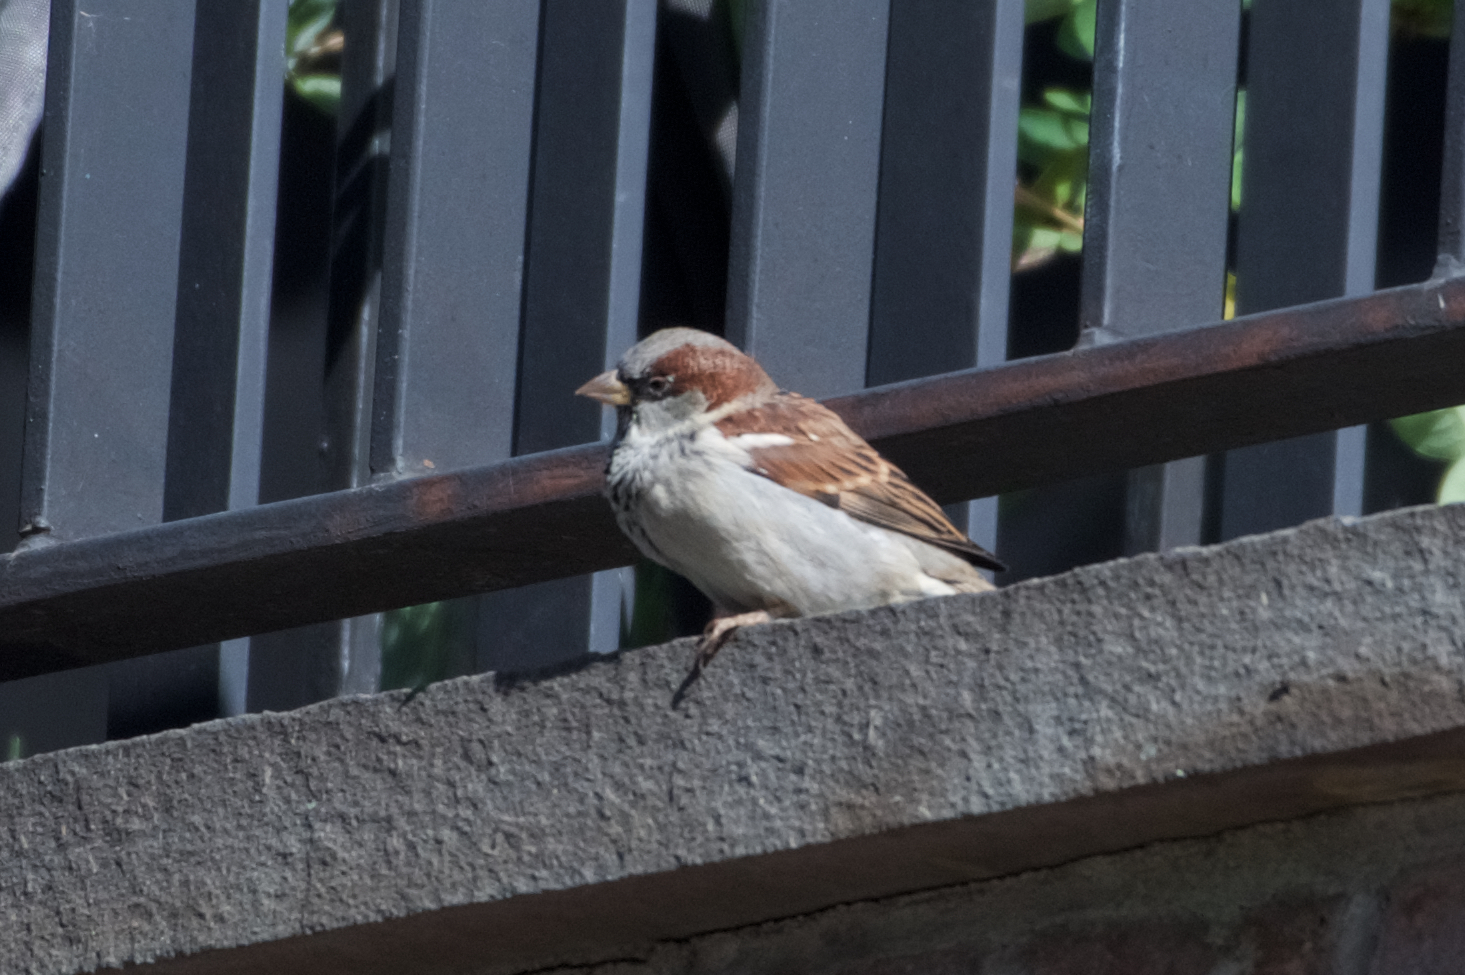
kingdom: Animalia
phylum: Chordata
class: Aves
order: Passeriformes
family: Passeridae
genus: Passer
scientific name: Passer domesticus
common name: House sparrow
